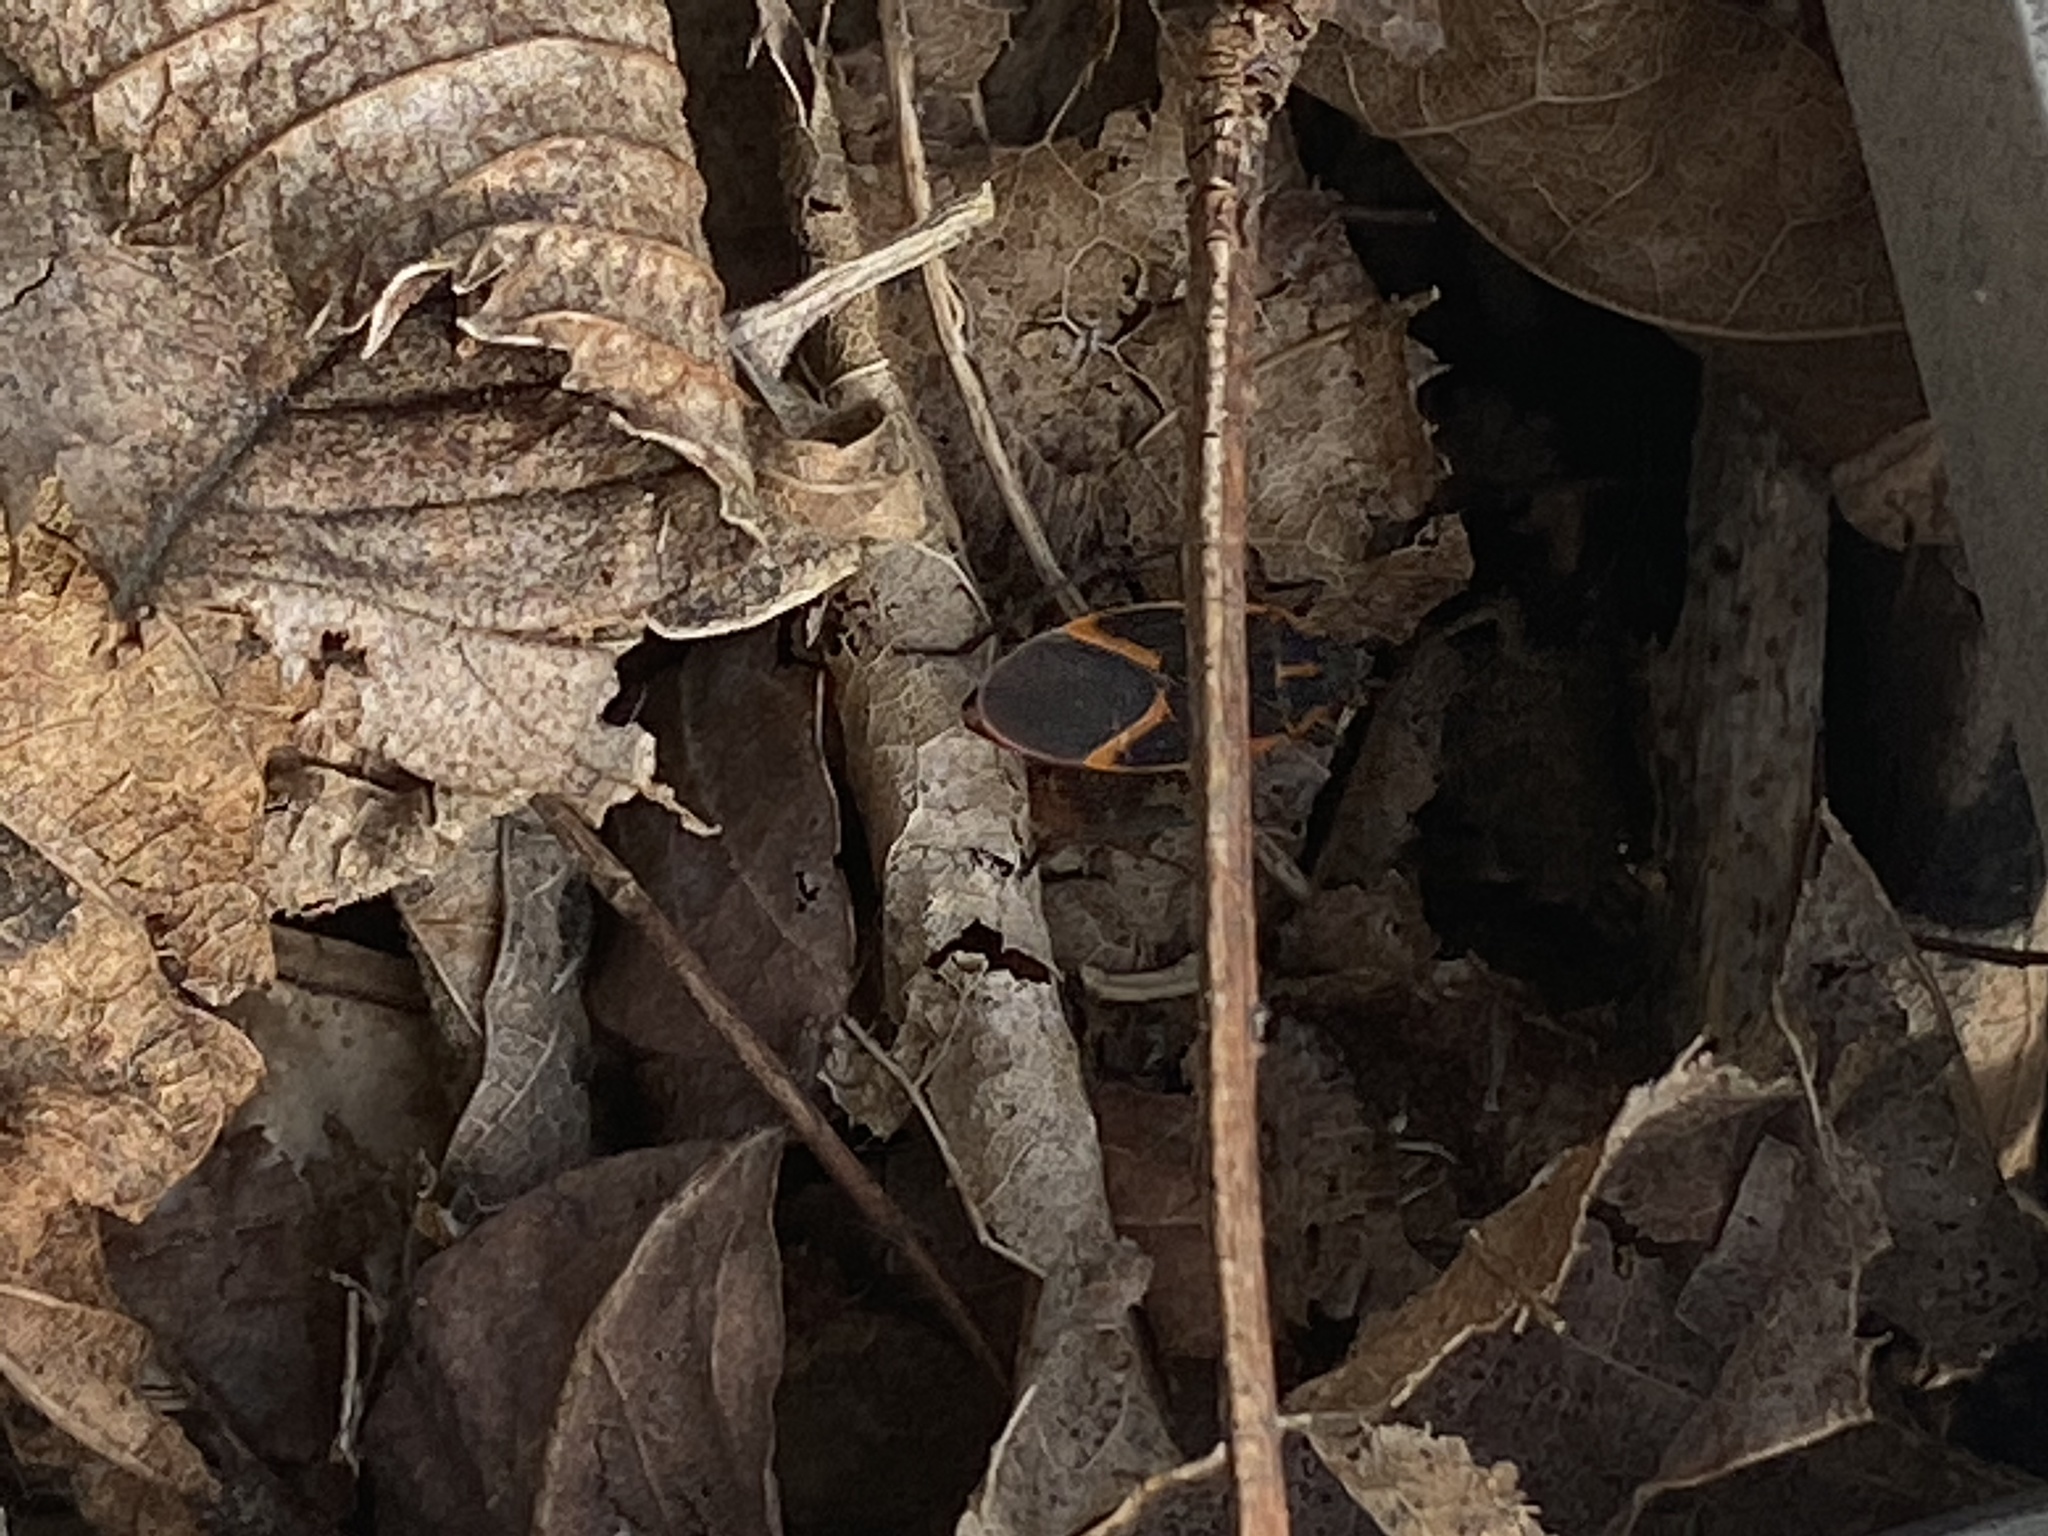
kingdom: Animalia
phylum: Arthropoda
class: Insecta
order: Hemiptera
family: Rhopalidae
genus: Boisea
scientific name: Boisea trivittata
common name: Boxelder bug
